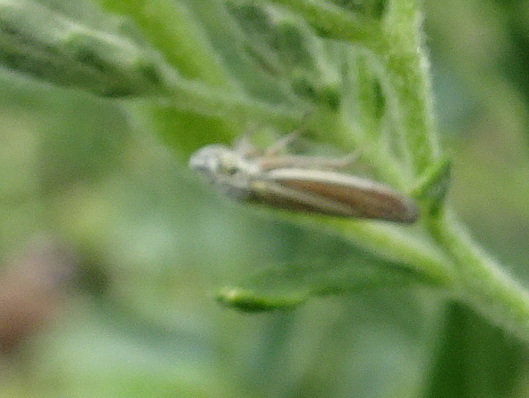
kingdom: Animalia
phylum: Arthropoda
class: Insecta
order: Hemiptera
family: Cicadellidae
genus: Neokolla
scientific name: Neokolla hieroglyphica
